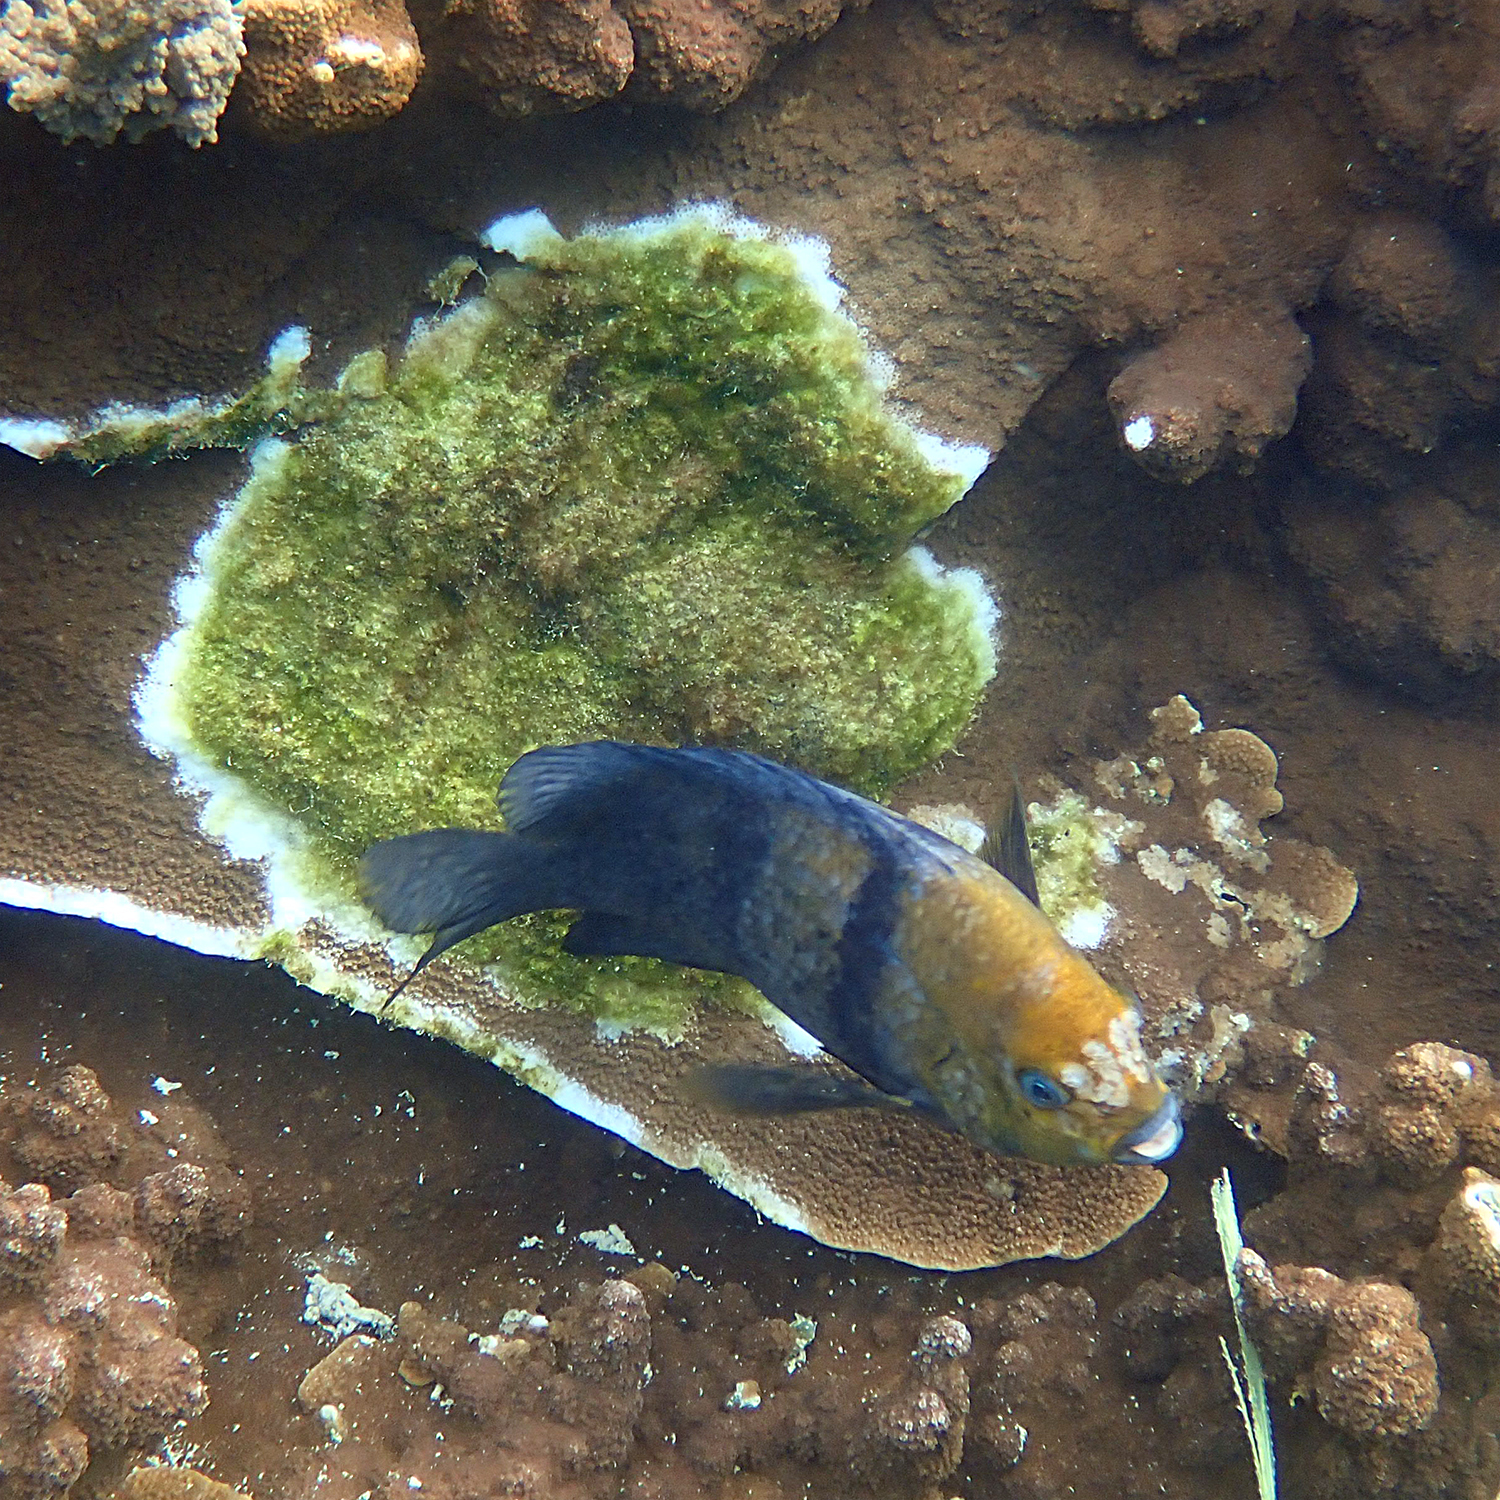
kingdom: Animalia
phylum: Chordata
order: Perciformes
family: Pomacentridae
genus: Parma
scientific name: Parma polylepis
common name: Banded parma
